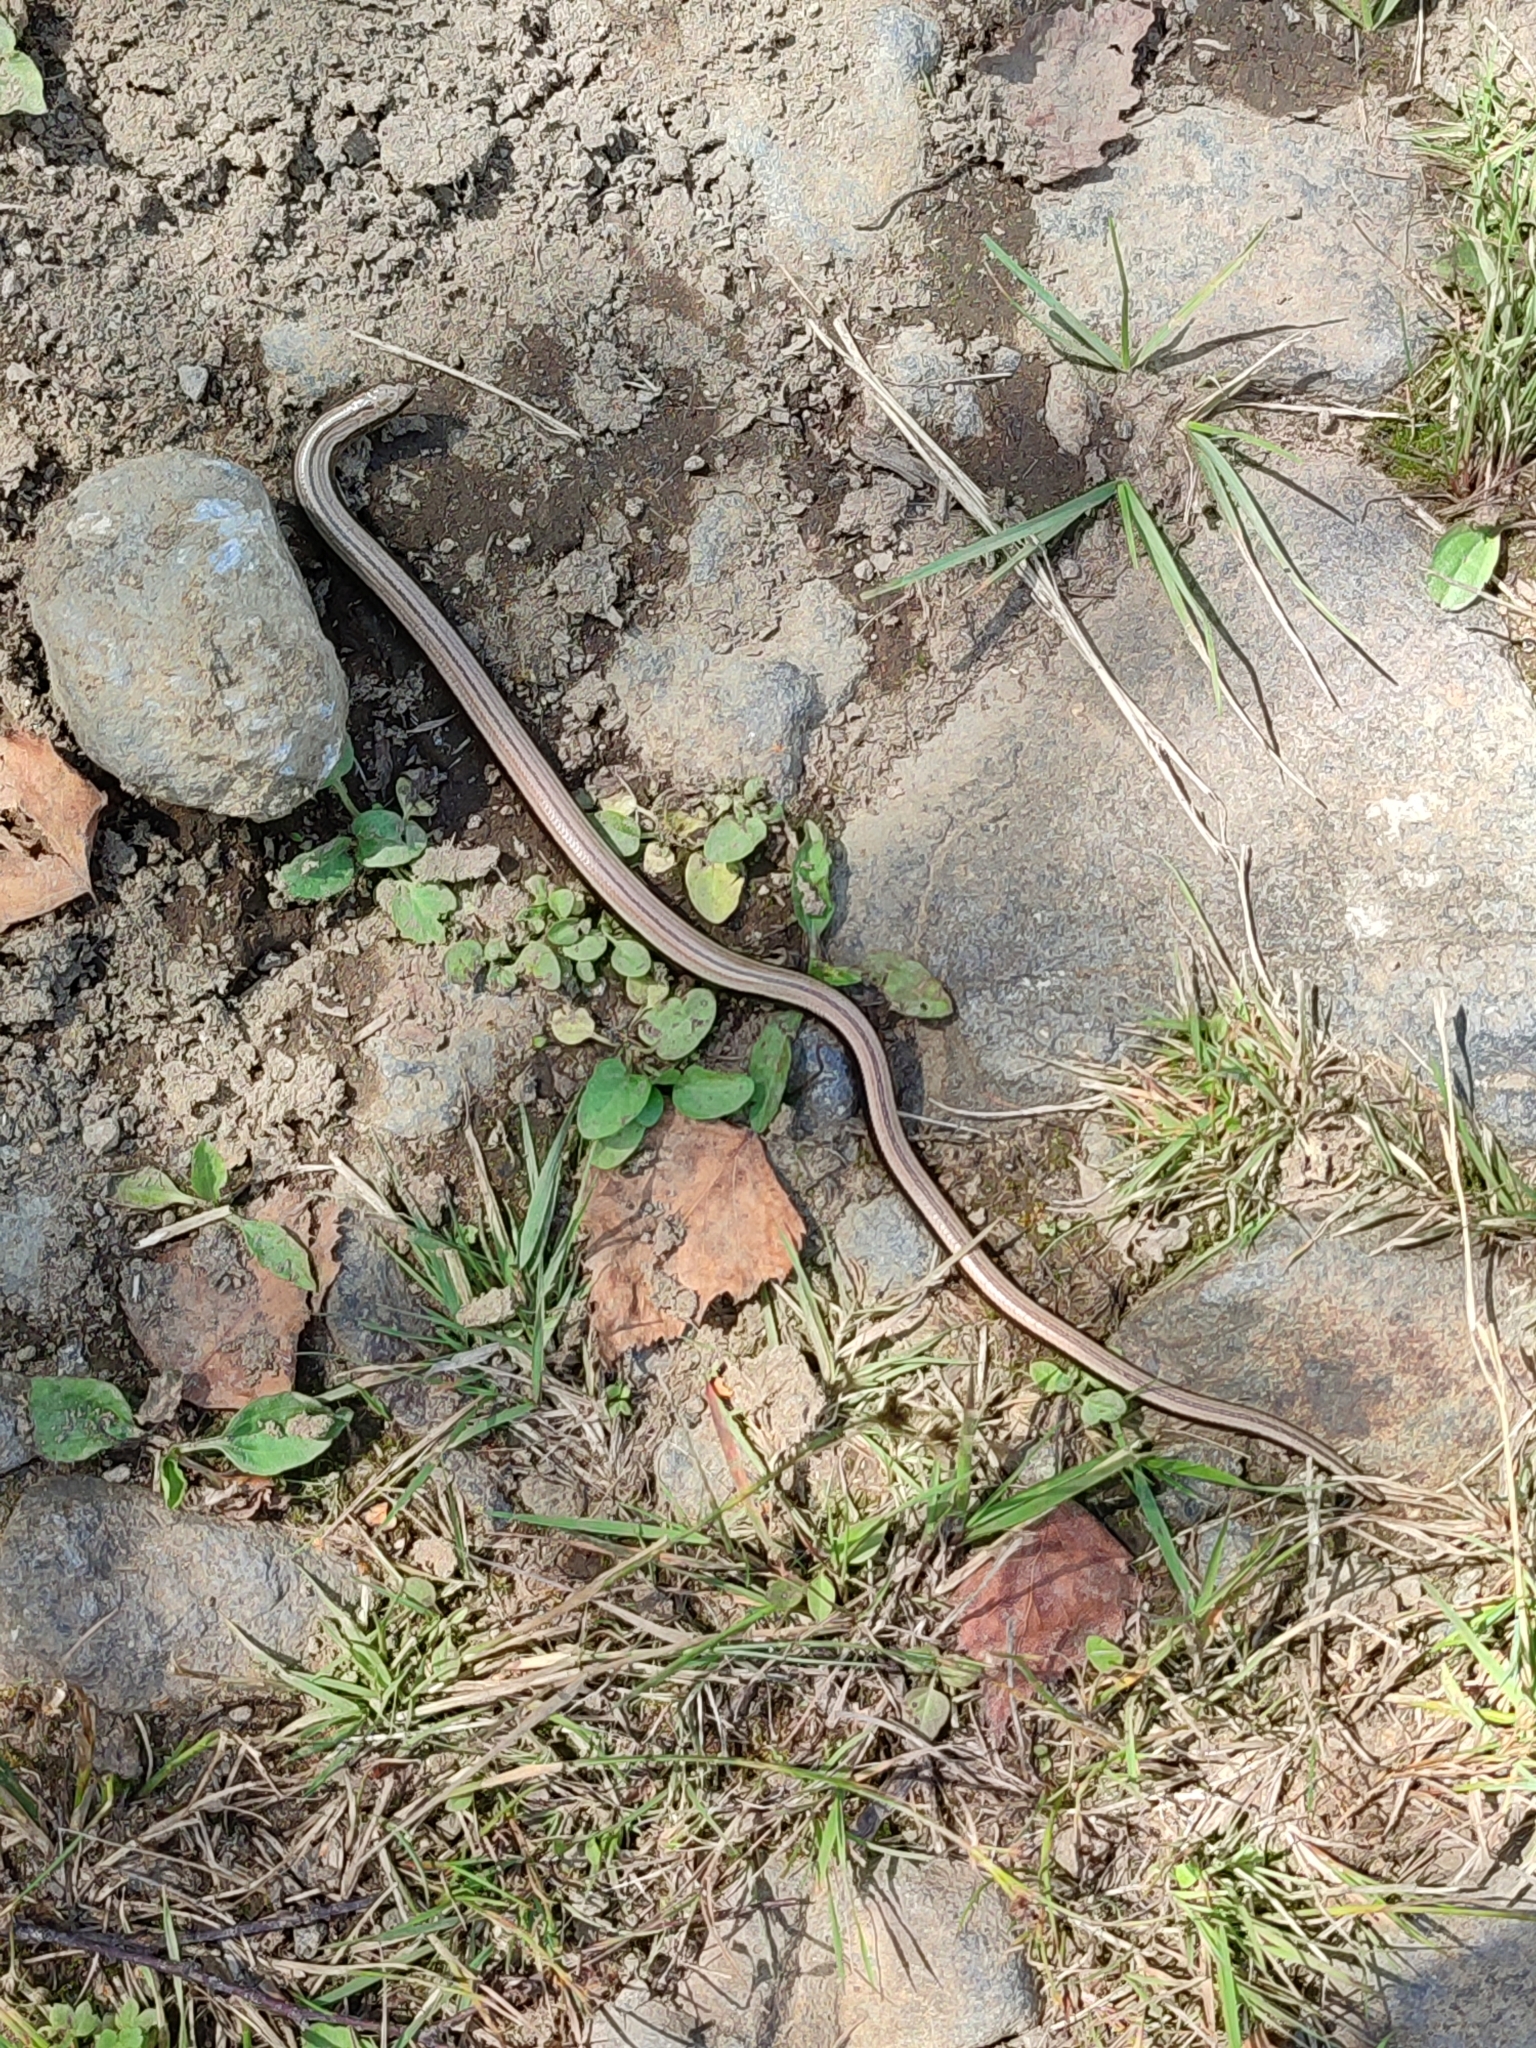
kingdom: Animalia
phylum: Chordata
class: Squamata
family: Anguidae
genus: Anguis
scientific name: Anguis colchica
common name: Slow worm
